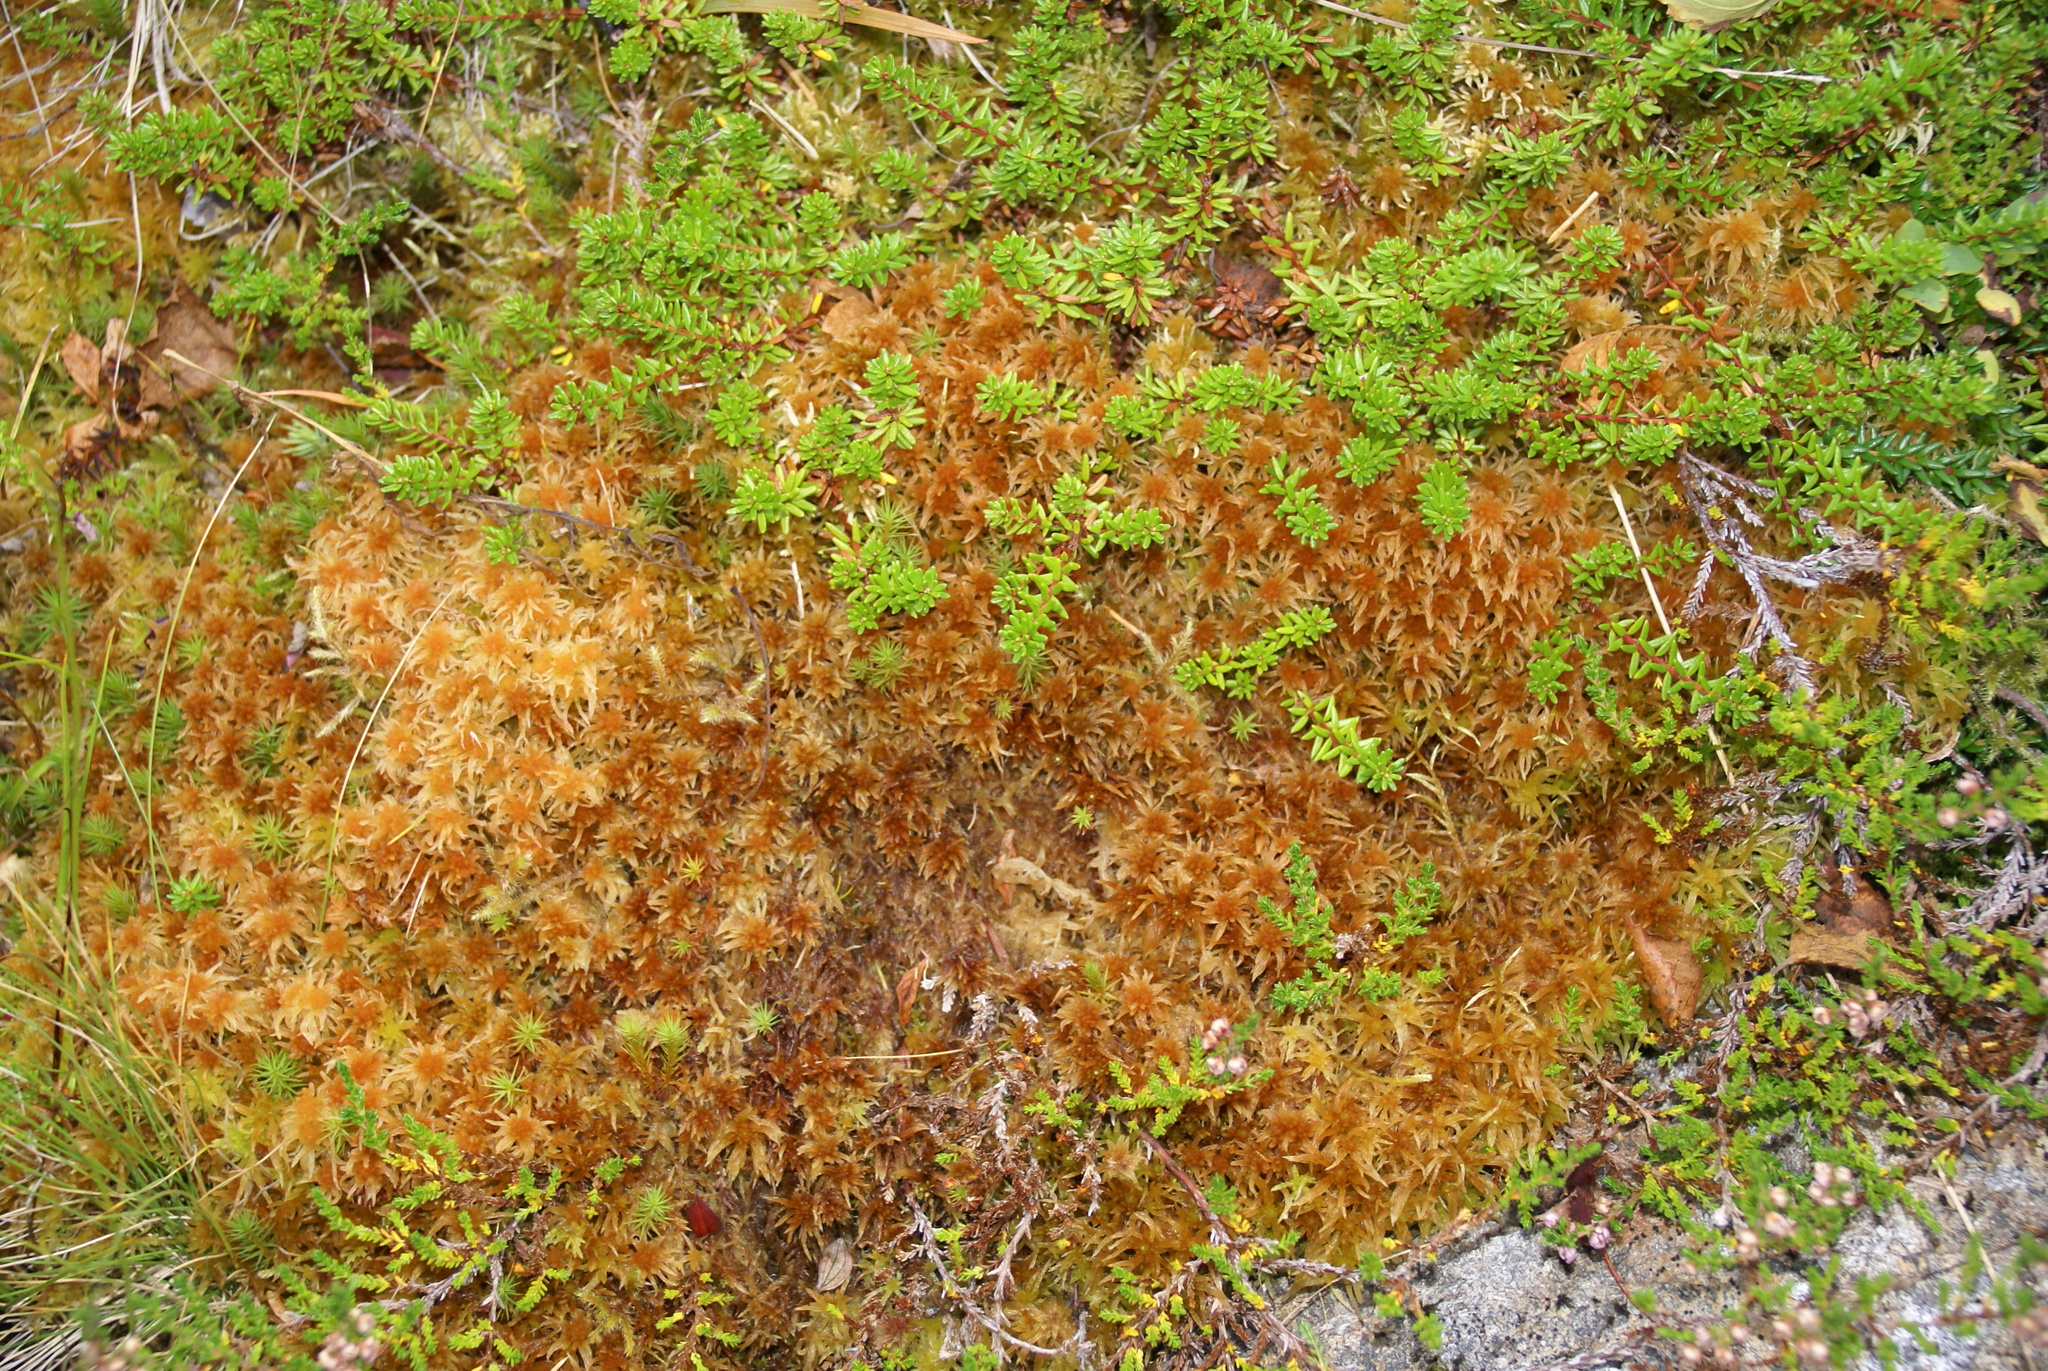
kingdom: Plantae
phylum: Bryophyta
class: Sphagnopsida
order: Sphagnales
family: Sphagnaceae
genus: Sphagnum
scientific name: Sphagnum angustifolium
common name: Narrow-leaved peat moss
